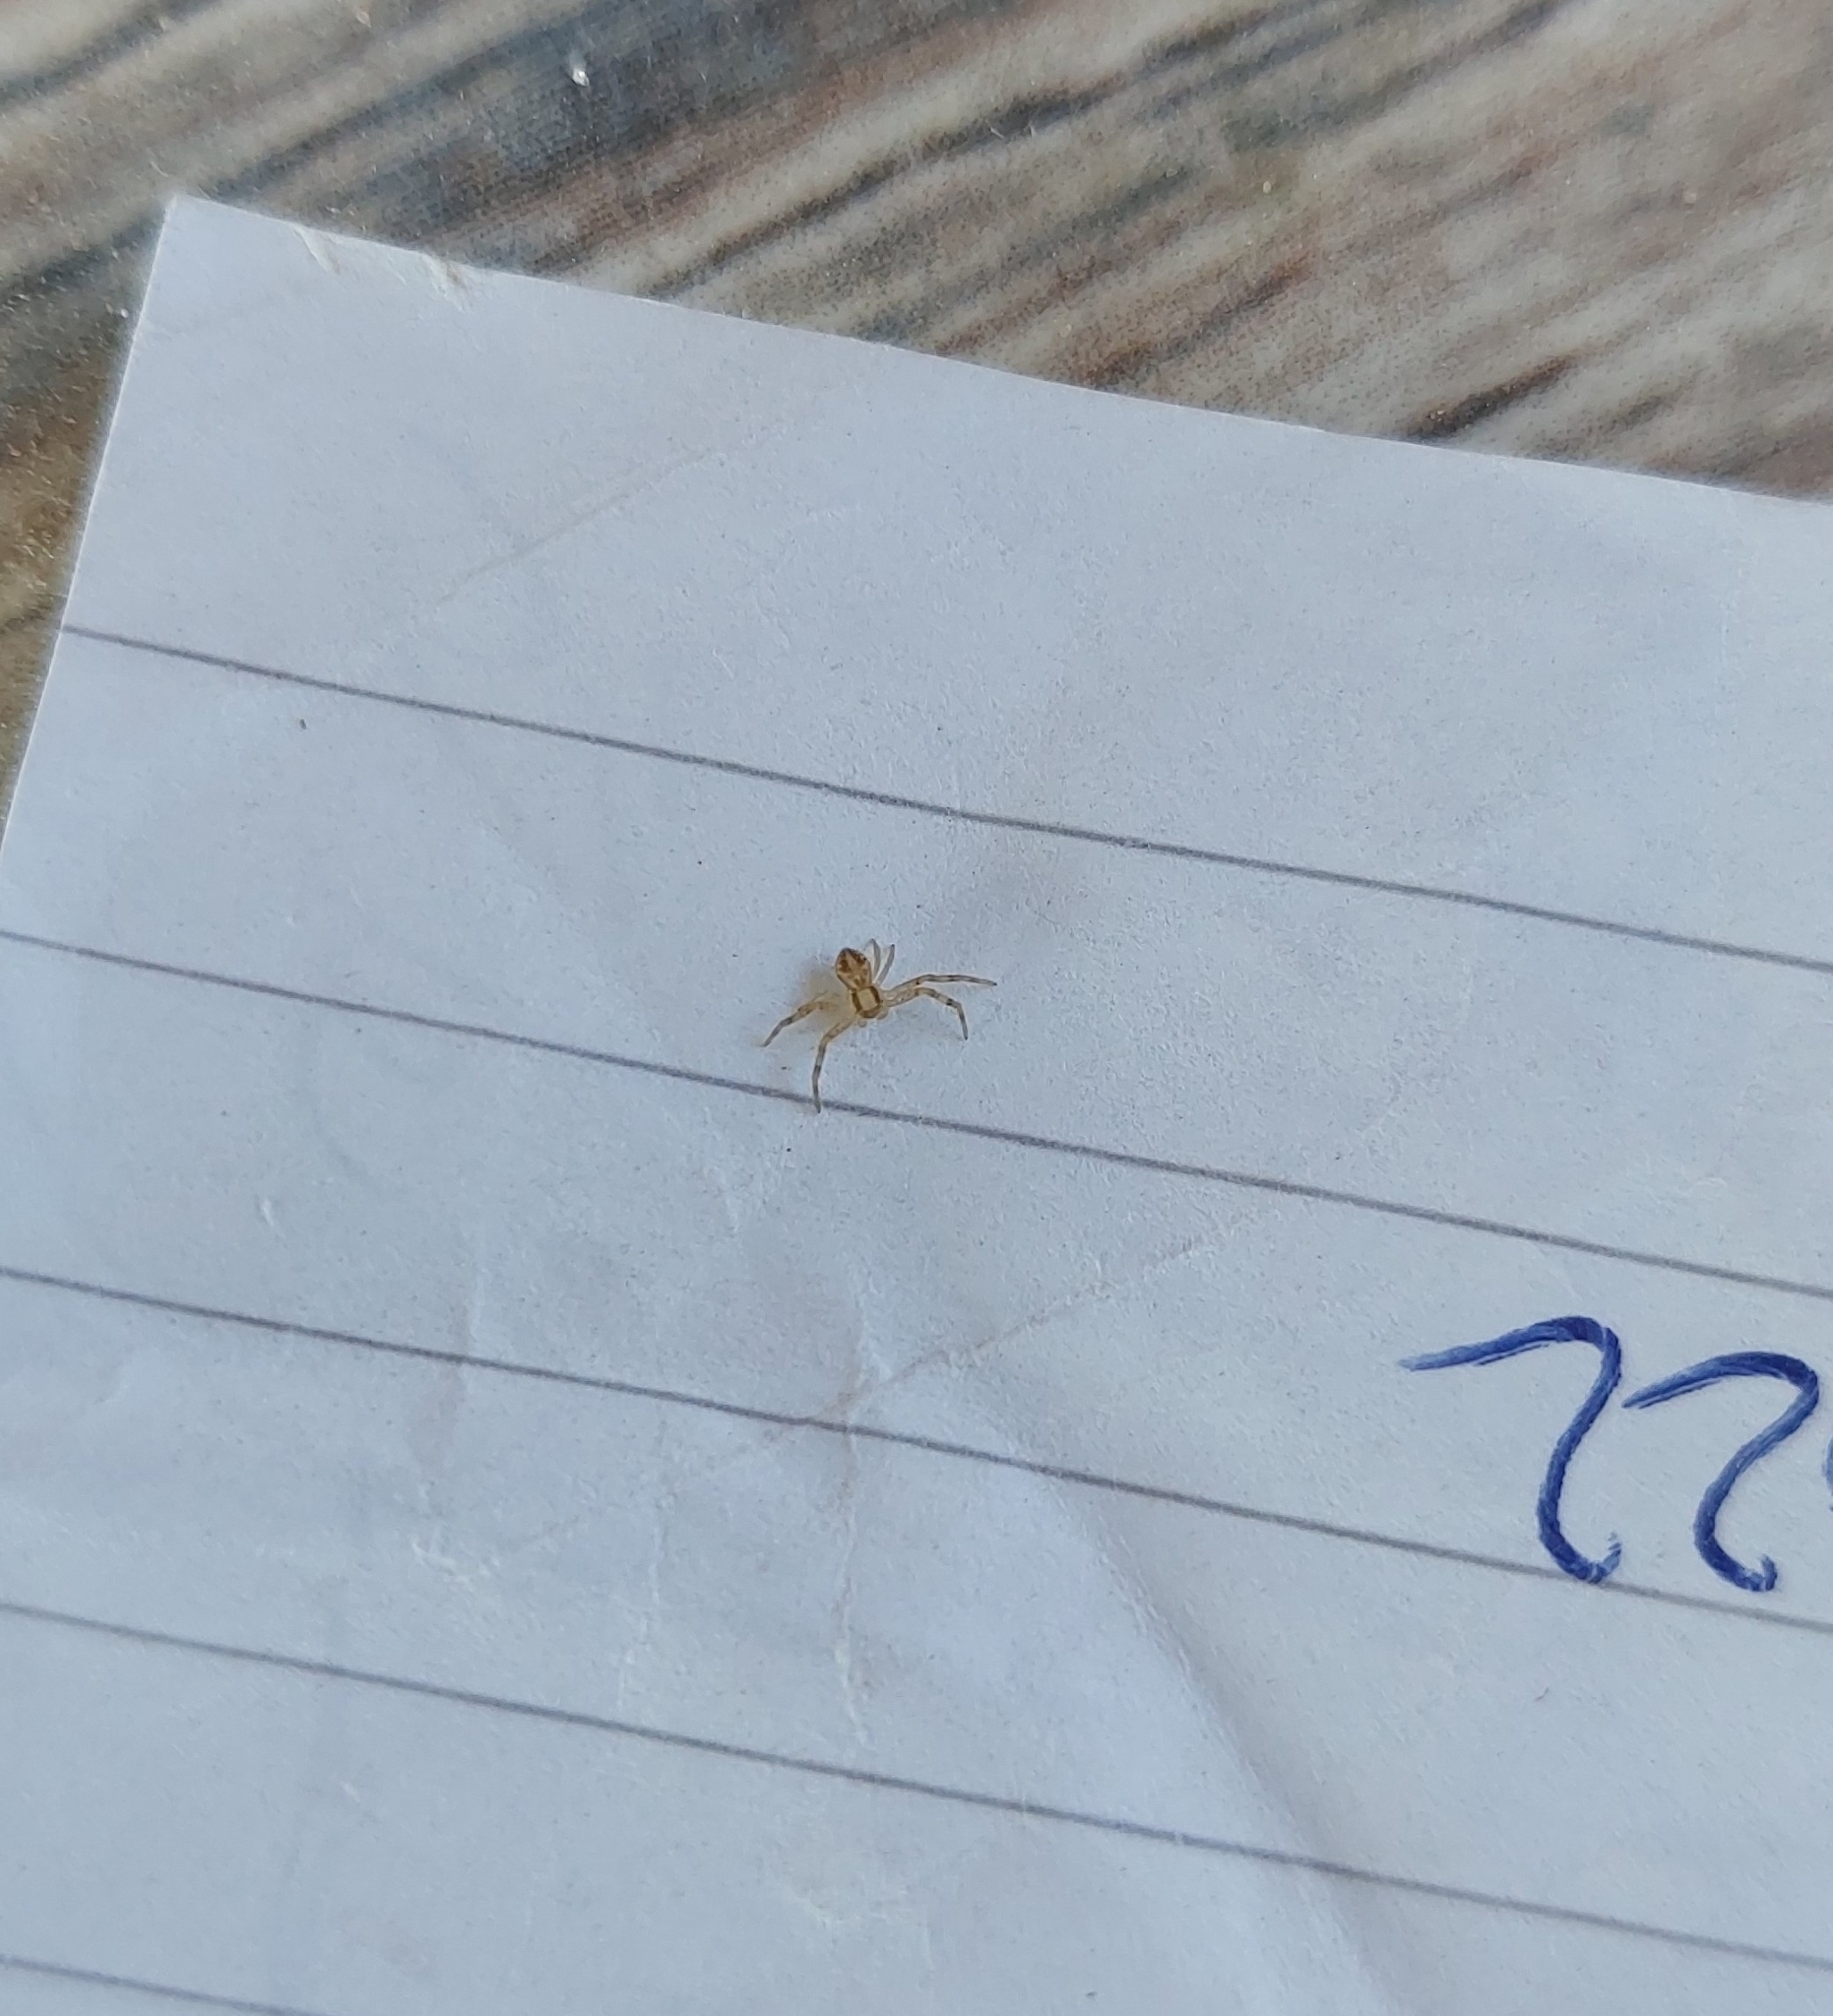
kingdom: Animalia
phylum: Arthropoda
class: Arachnida
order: Araneae
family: Thomisidae
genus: Misumenops
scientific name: Misumenops
